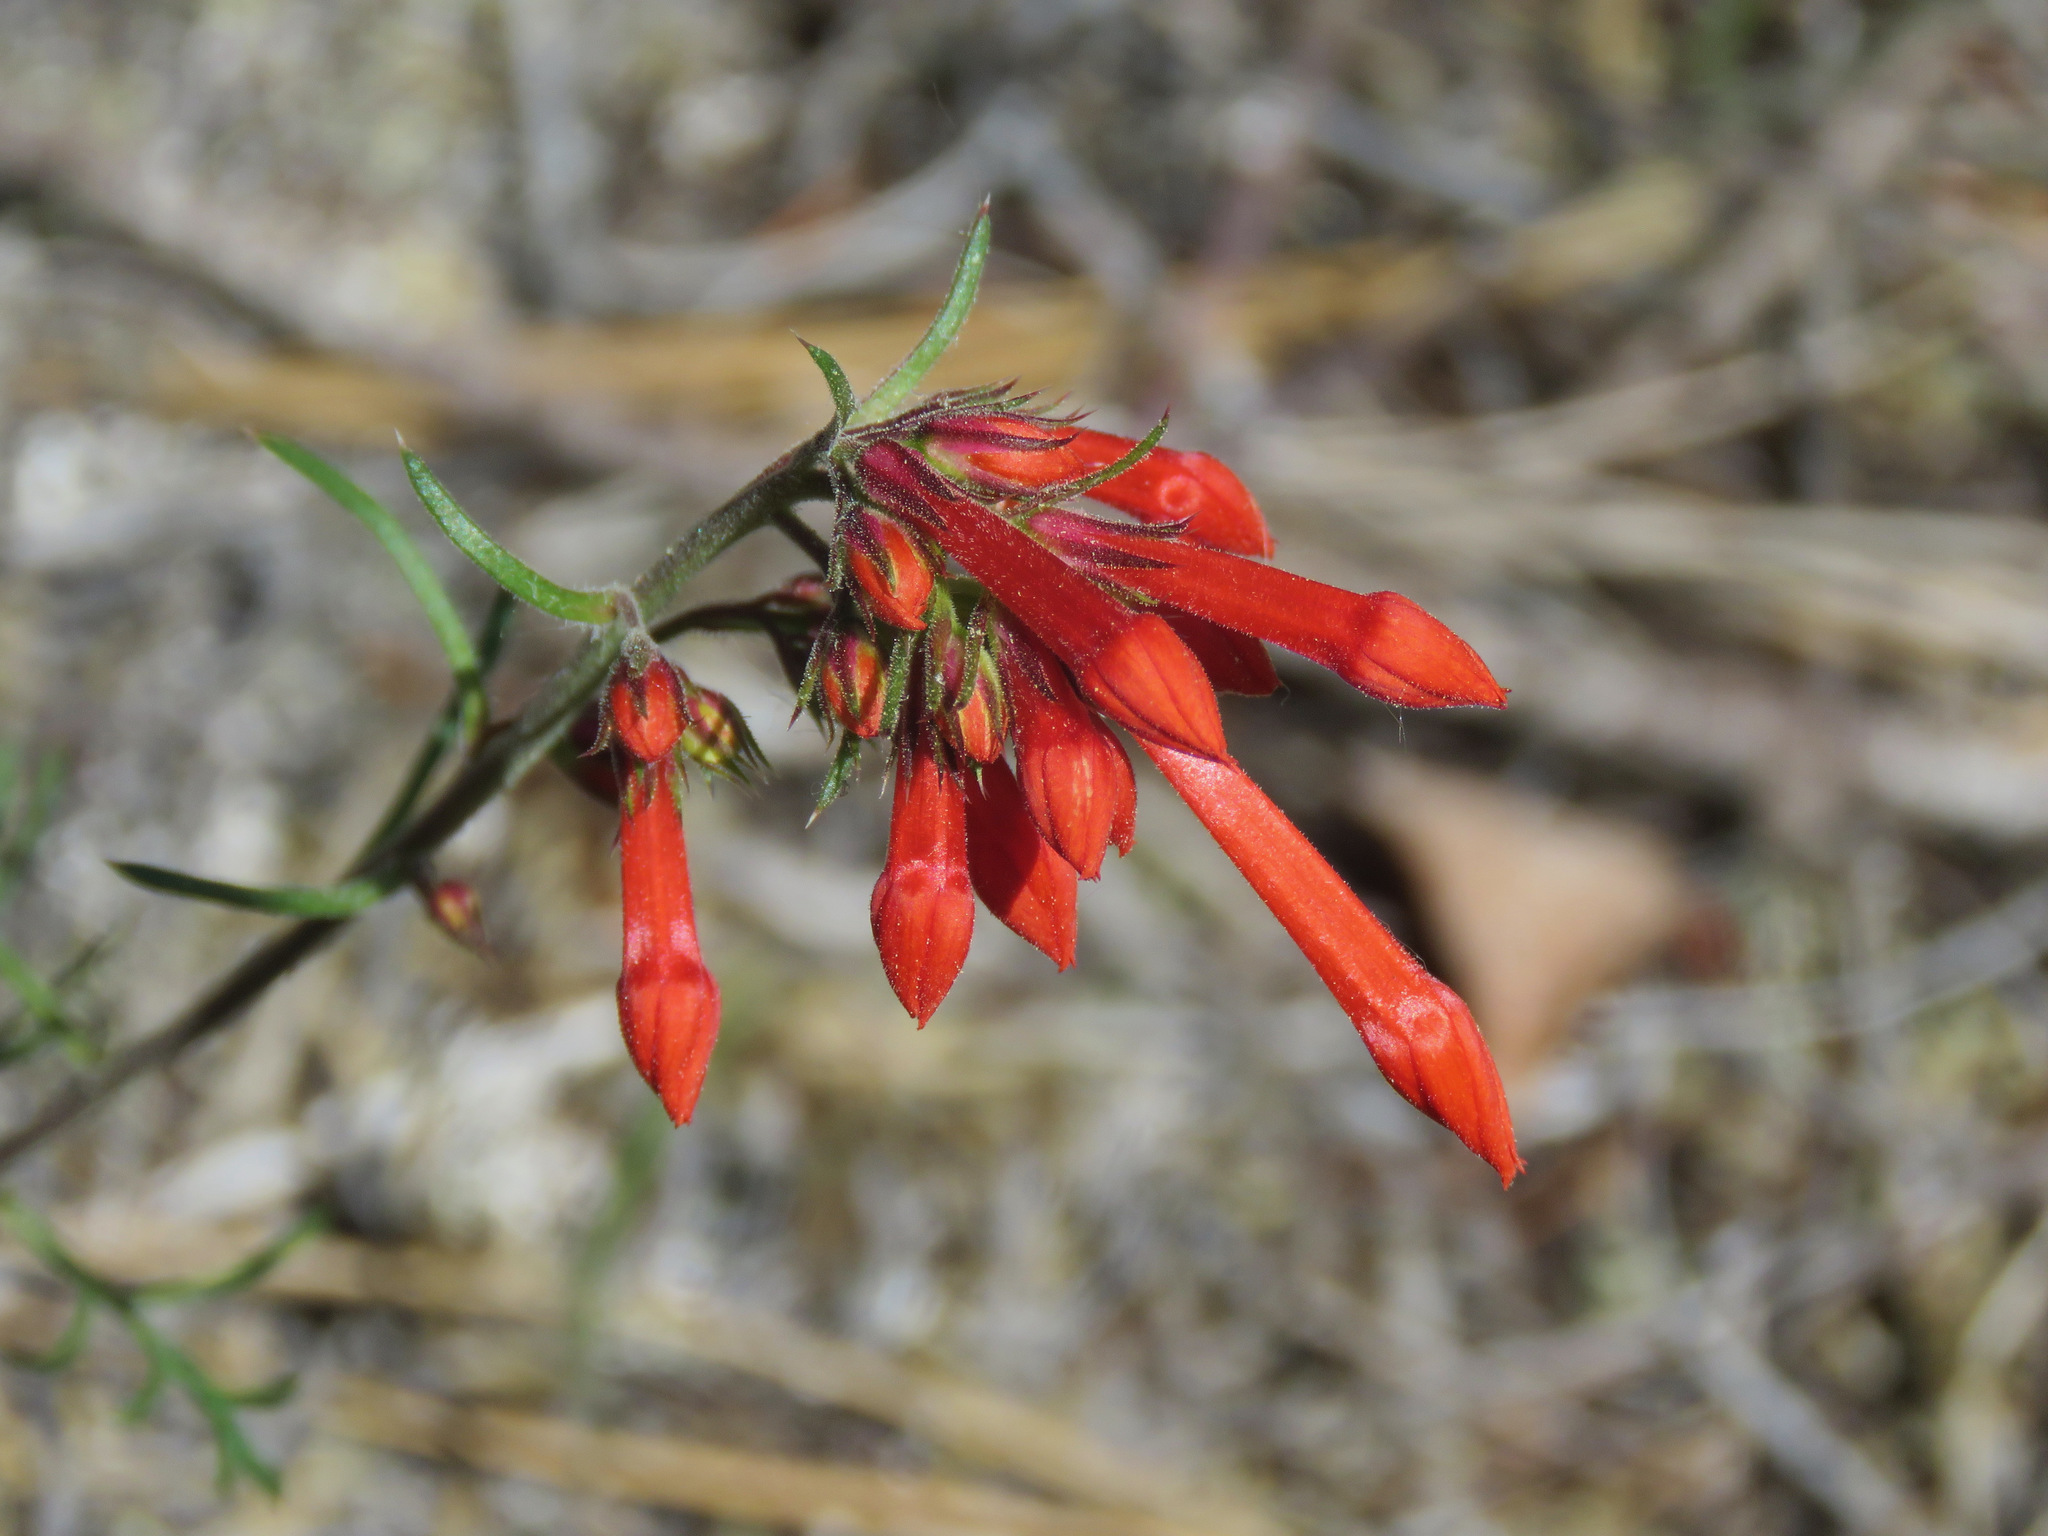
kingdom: Plantae
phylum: Tracheophyta
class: Magnoliopsida
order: Ericales
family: Polemoniaceae
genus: Ipomopsis
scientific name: Ipomopsis aggregata
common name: Scarlet gilia
